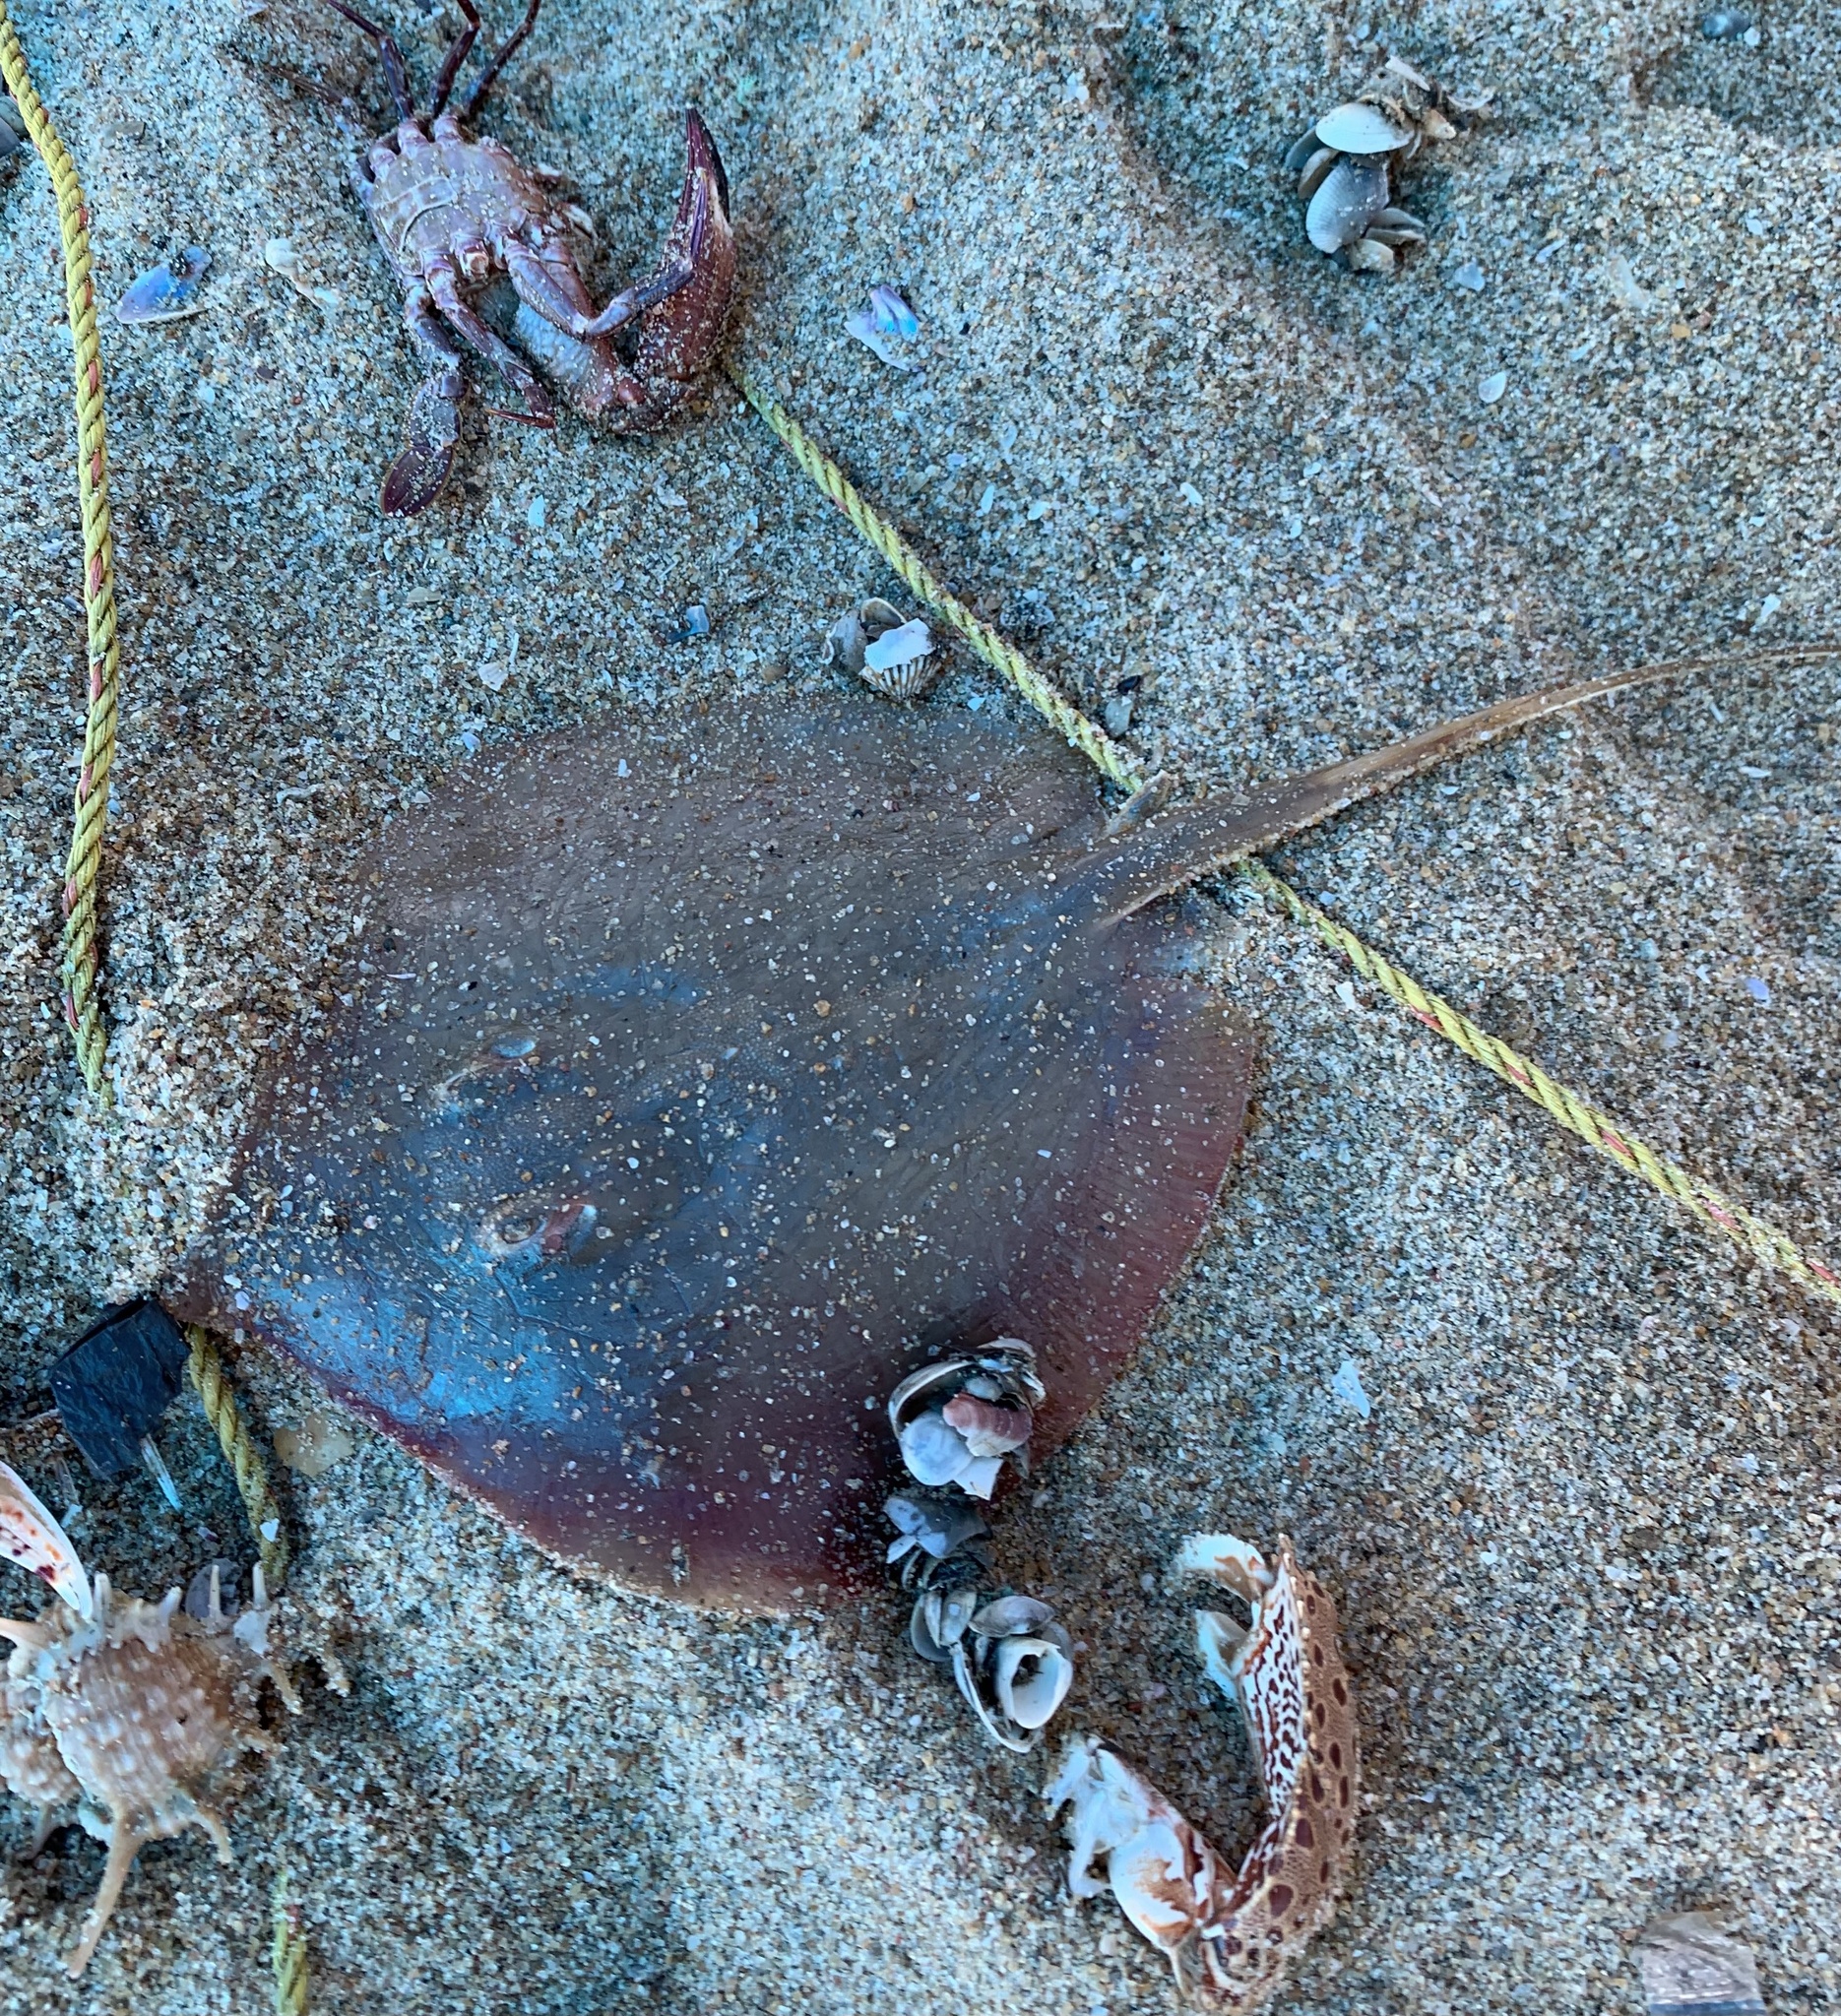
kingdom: Animalia
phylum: Chordata
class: Elasmobranchii
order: Myliobatiformes
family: Dasyatidae
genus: Brevitrygon
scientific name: Brevitrygon imbricata
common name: Scaly whipray
